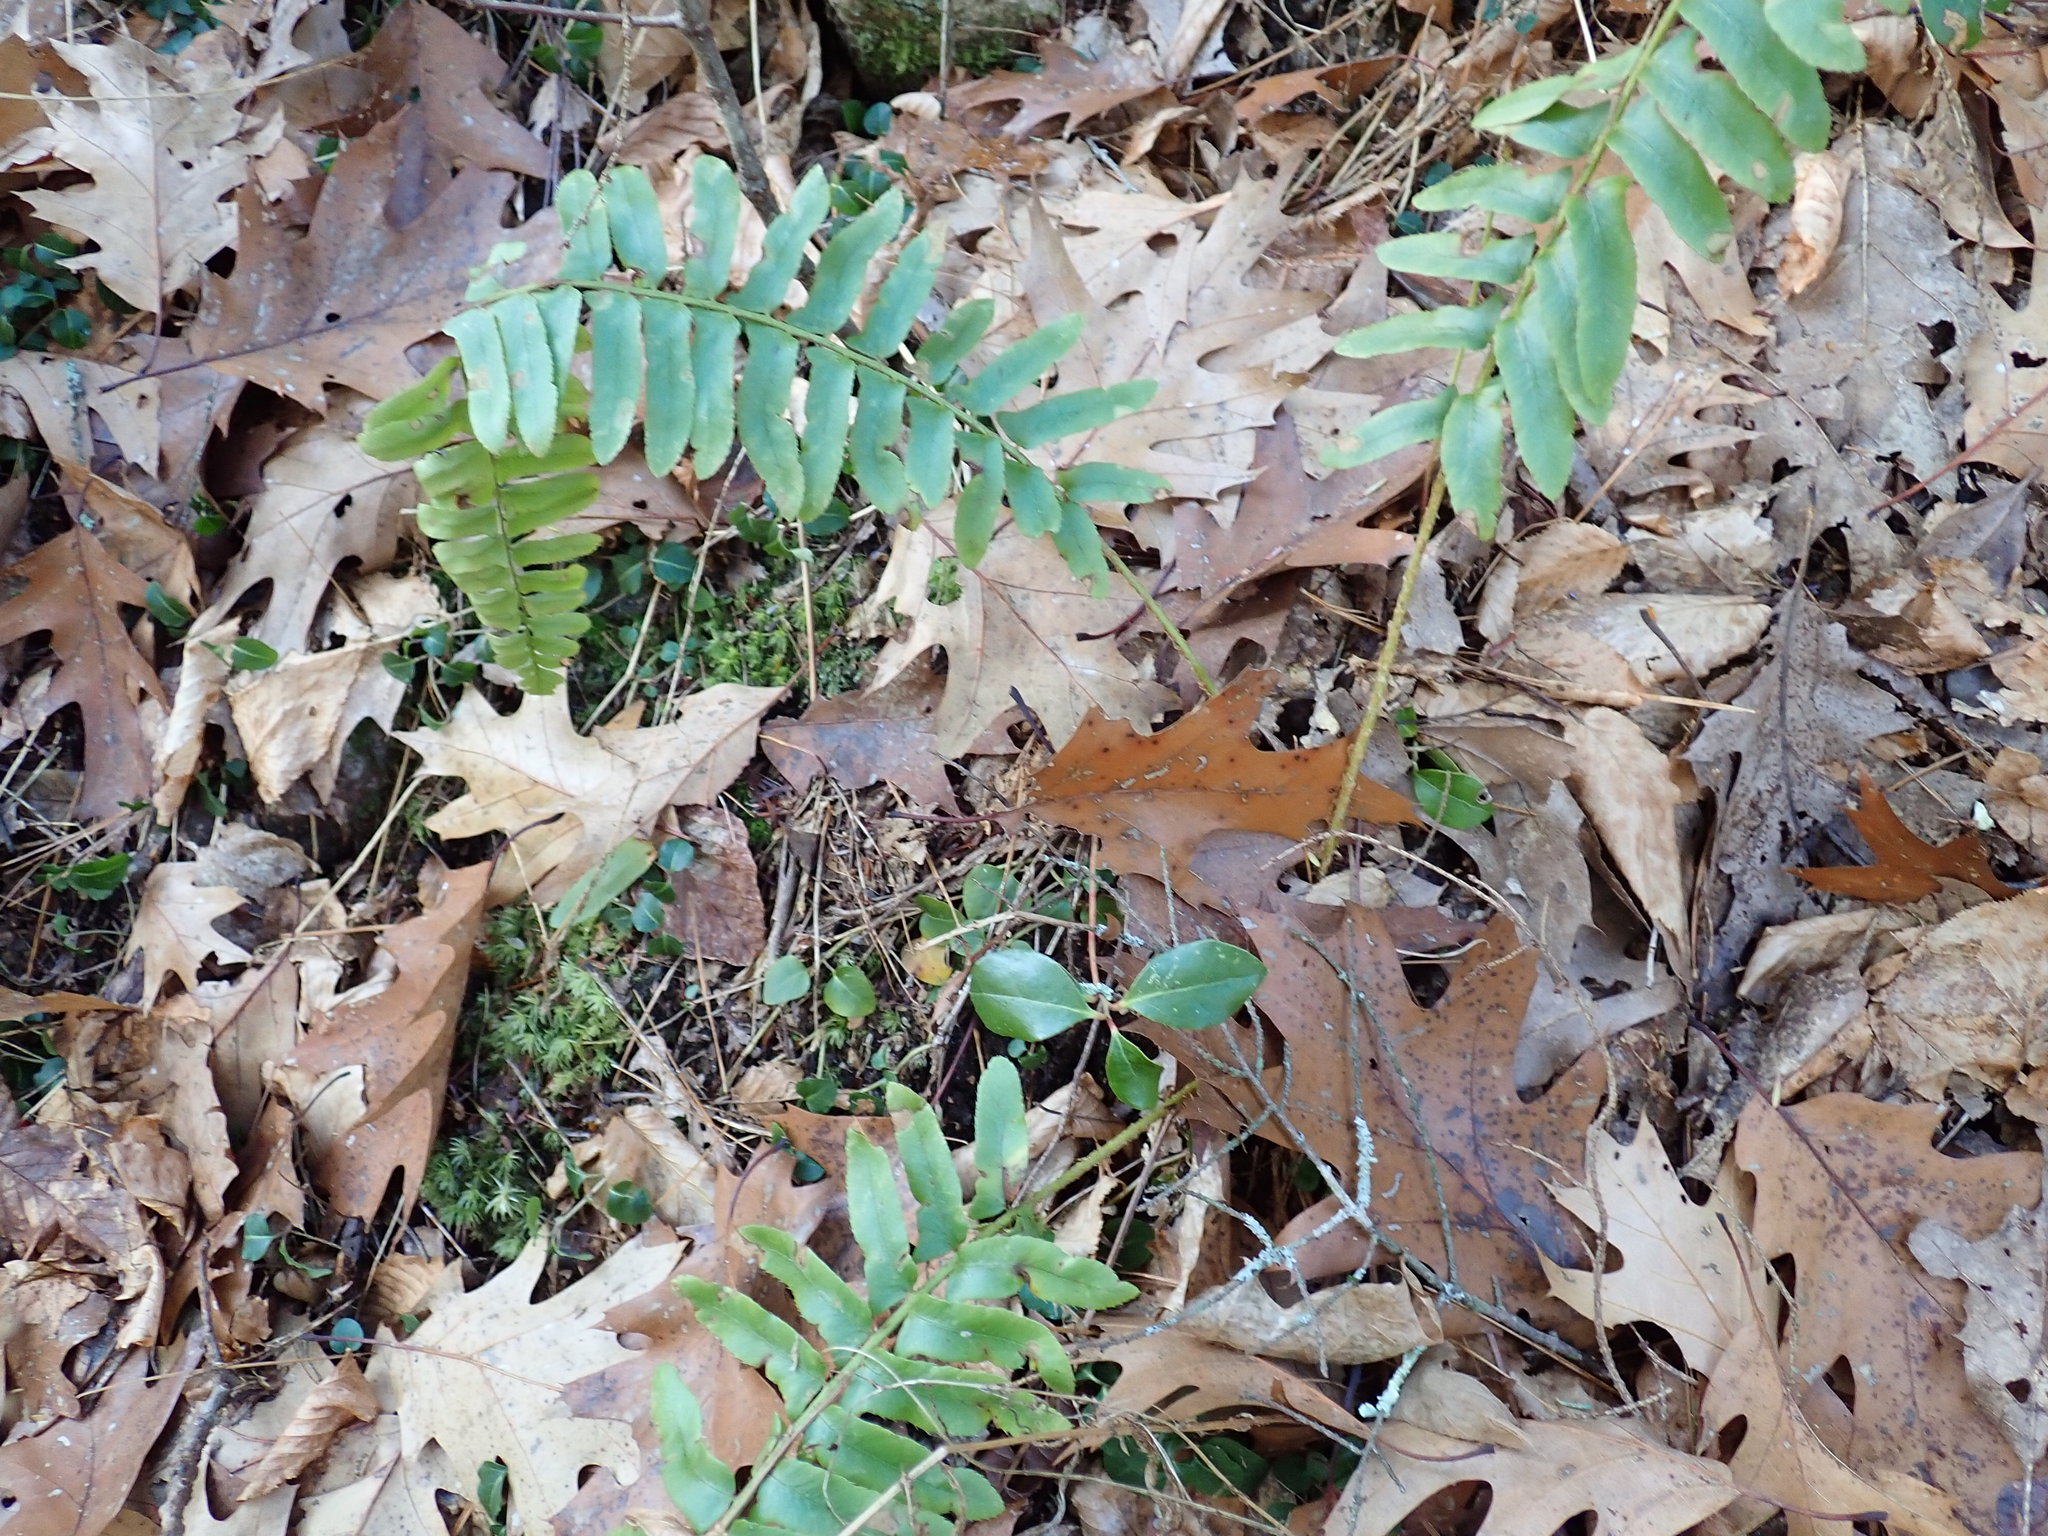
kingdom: Plantae
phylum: Tracheophyta
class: Polypodiopsida
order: Polypodiales
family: Dryopteridaceae
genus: Polystichum
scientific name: Polystichum acrostichoides
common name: Christmas fern
